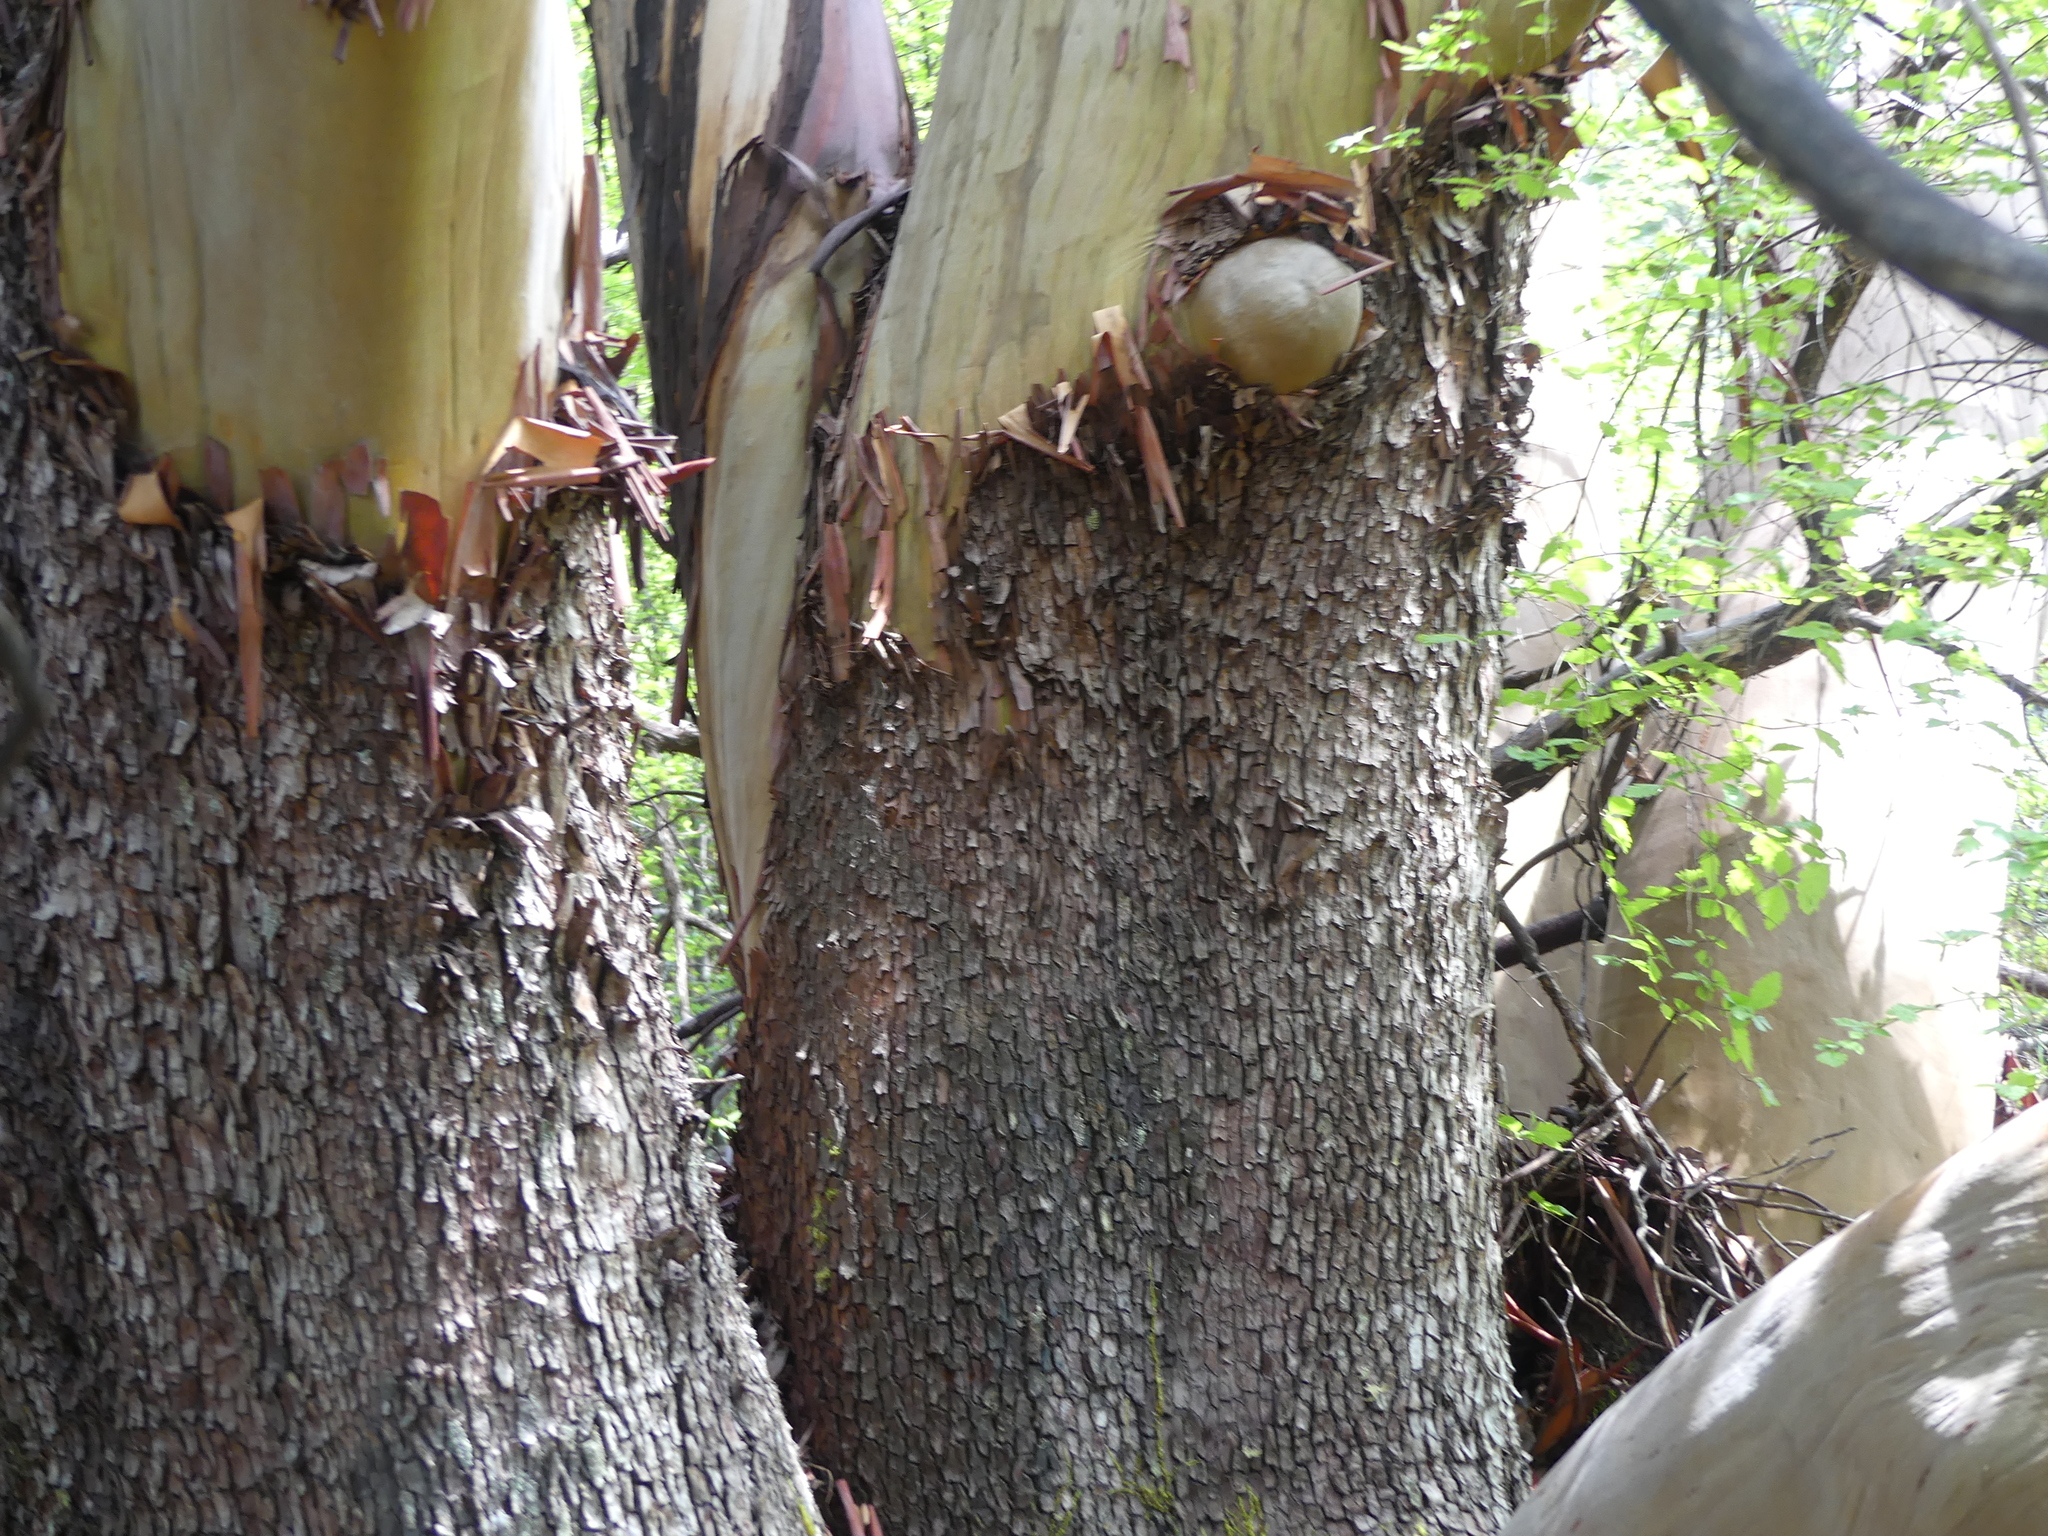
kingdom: Plantae
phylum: Tracheophyta
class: Magnoliopsida
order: Ericales
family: Ericaceae
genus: Arbutus
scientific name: Arbutus menziesii
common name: Pacific madrone
